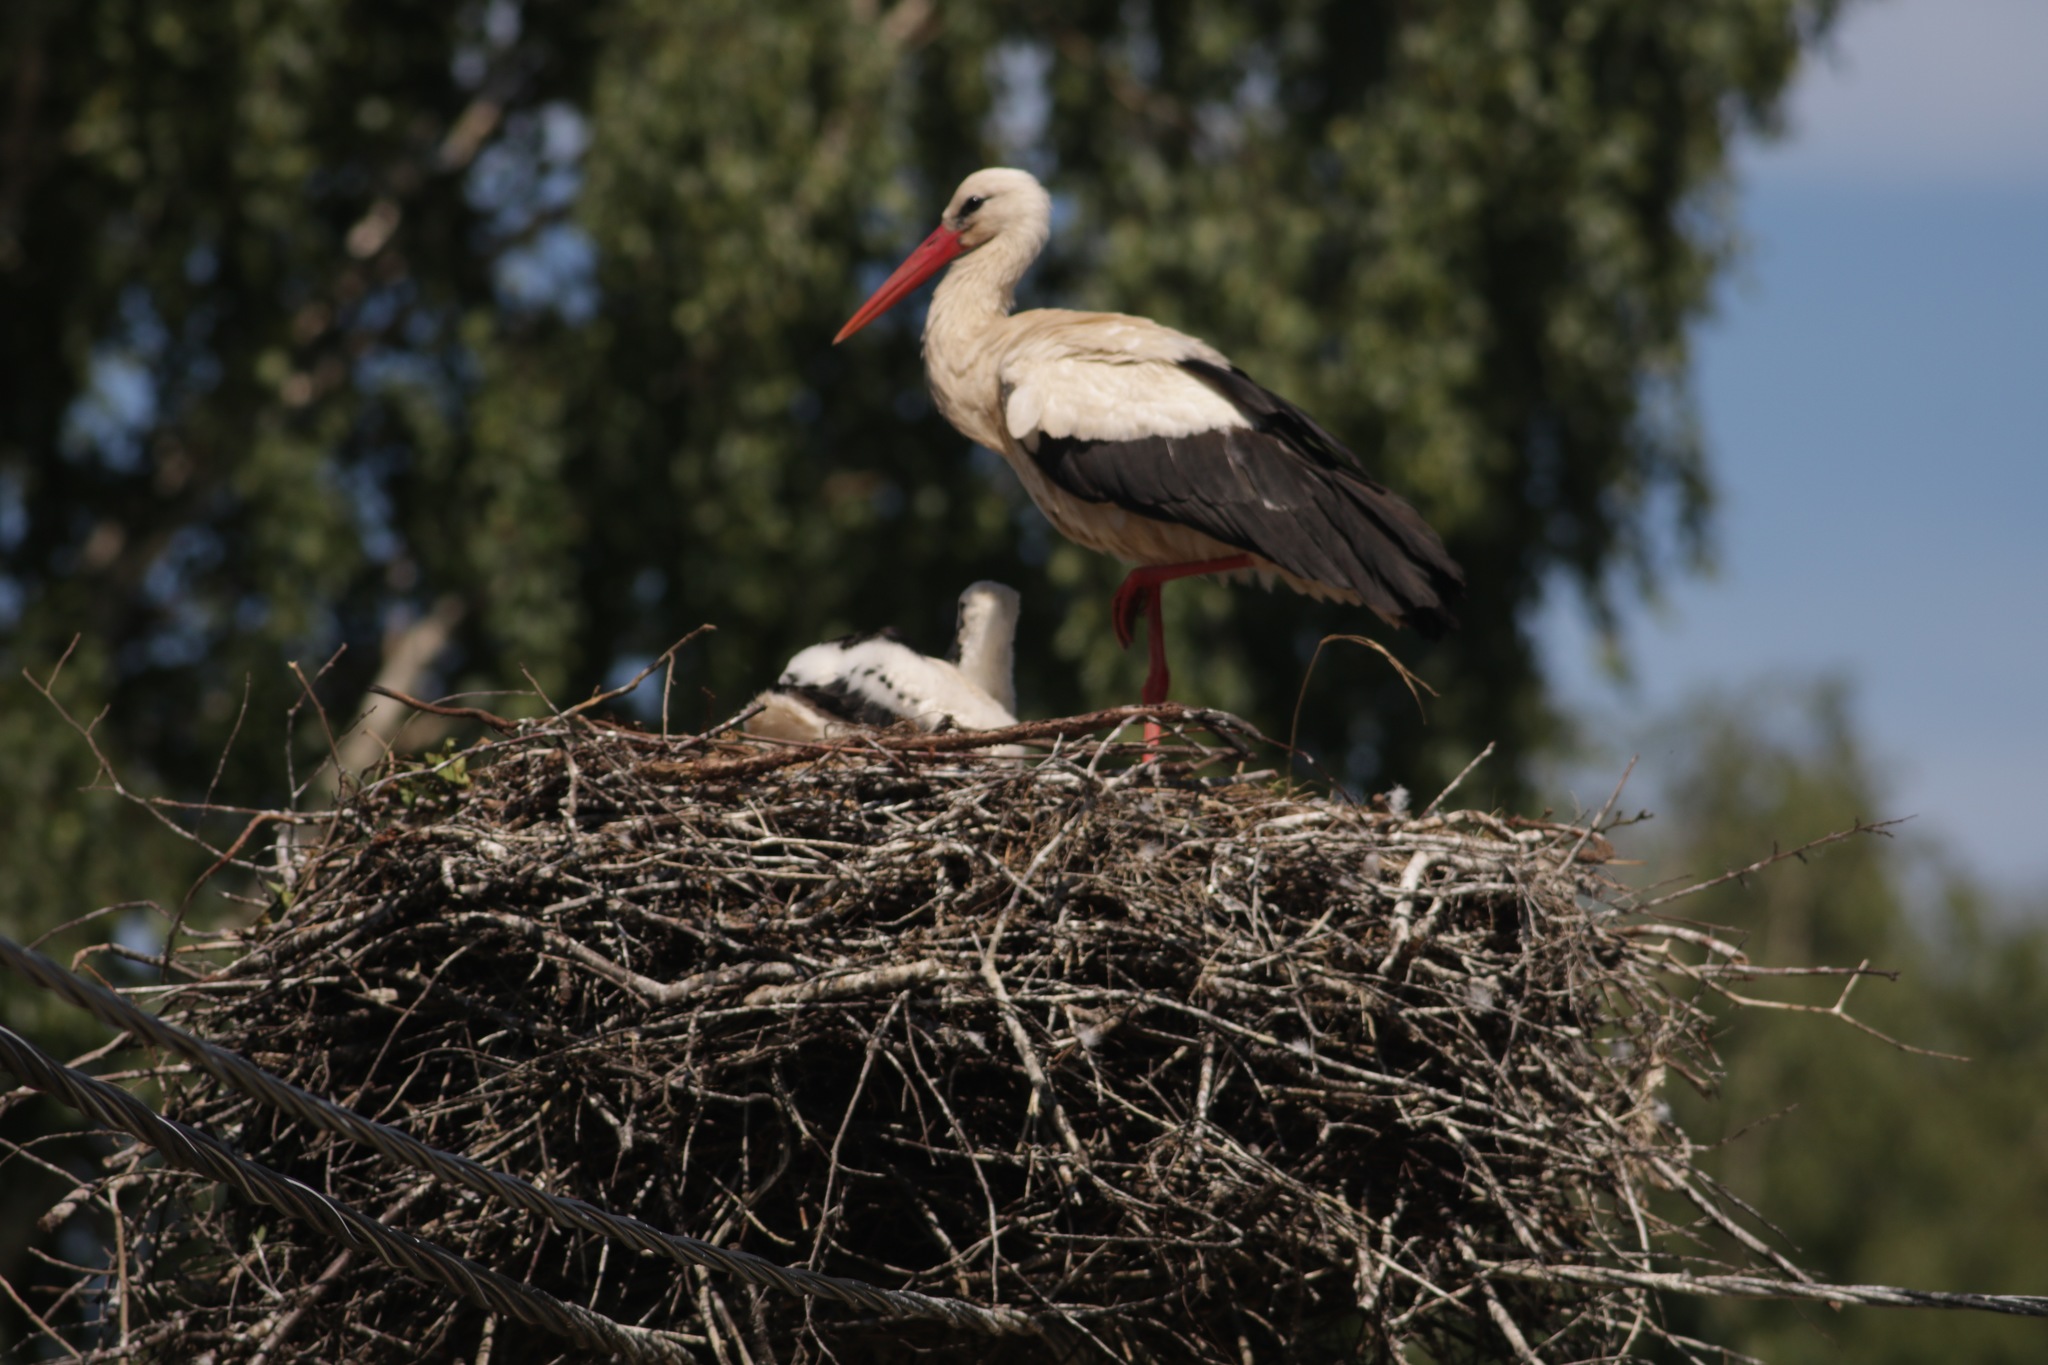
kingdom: Animalia
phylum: Chordata
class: Aves
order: Ciconiiformes
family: Ciconiidae
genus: Ciconia
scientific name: Ciconia ciconia
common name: White stork
